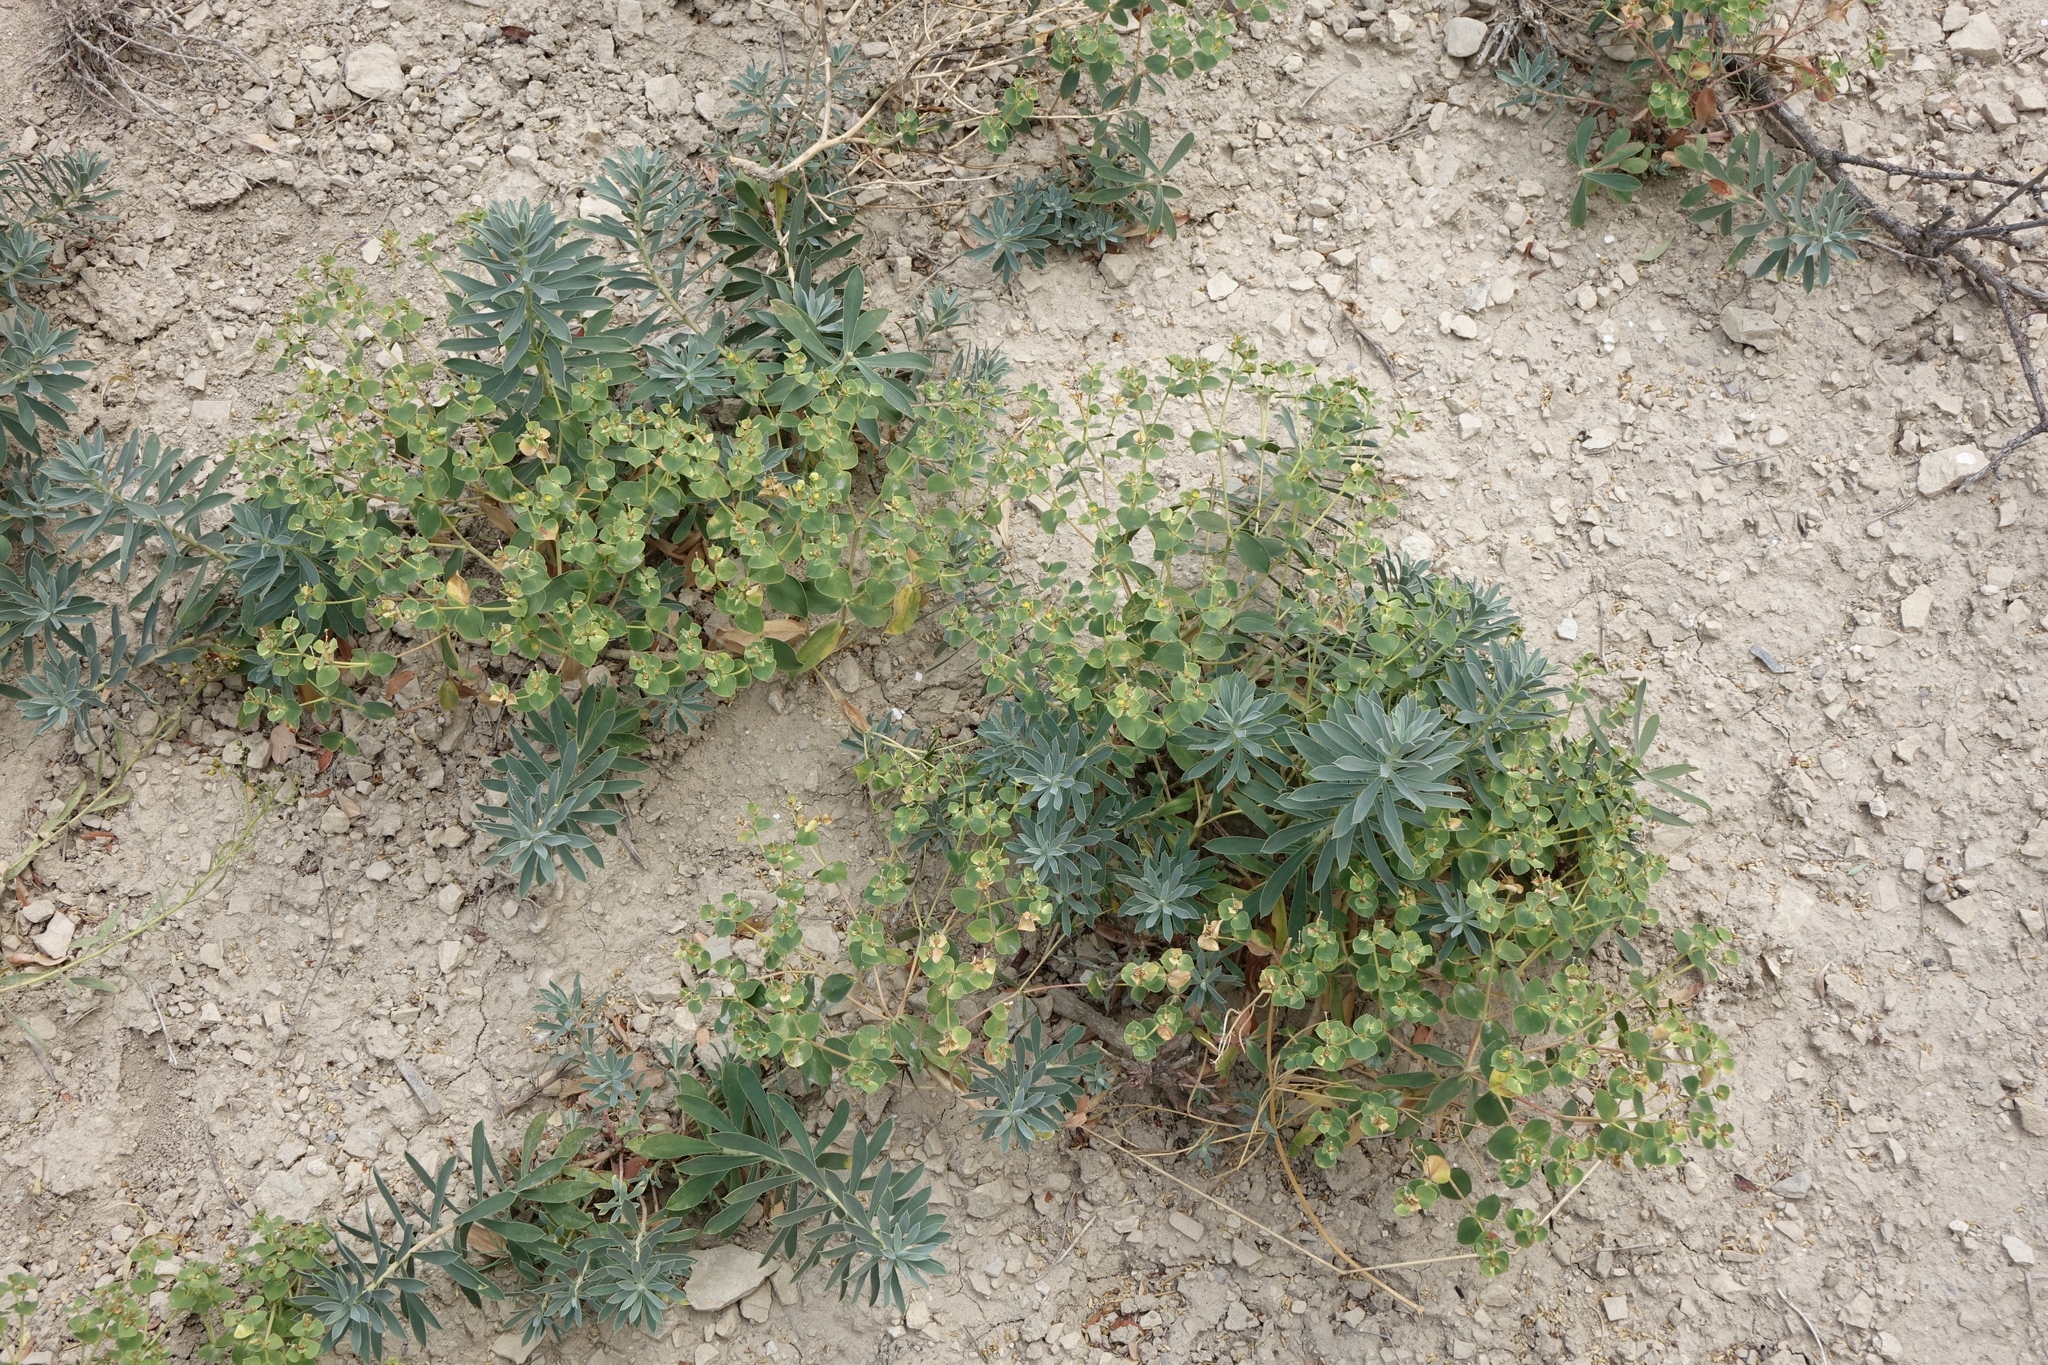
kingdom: Plantae
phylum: Tracheophyta
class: Magnoliopsida
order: Malpighiales
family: Euphorbiaceae
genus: Euphorbia
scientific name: Euphorbia iberica
